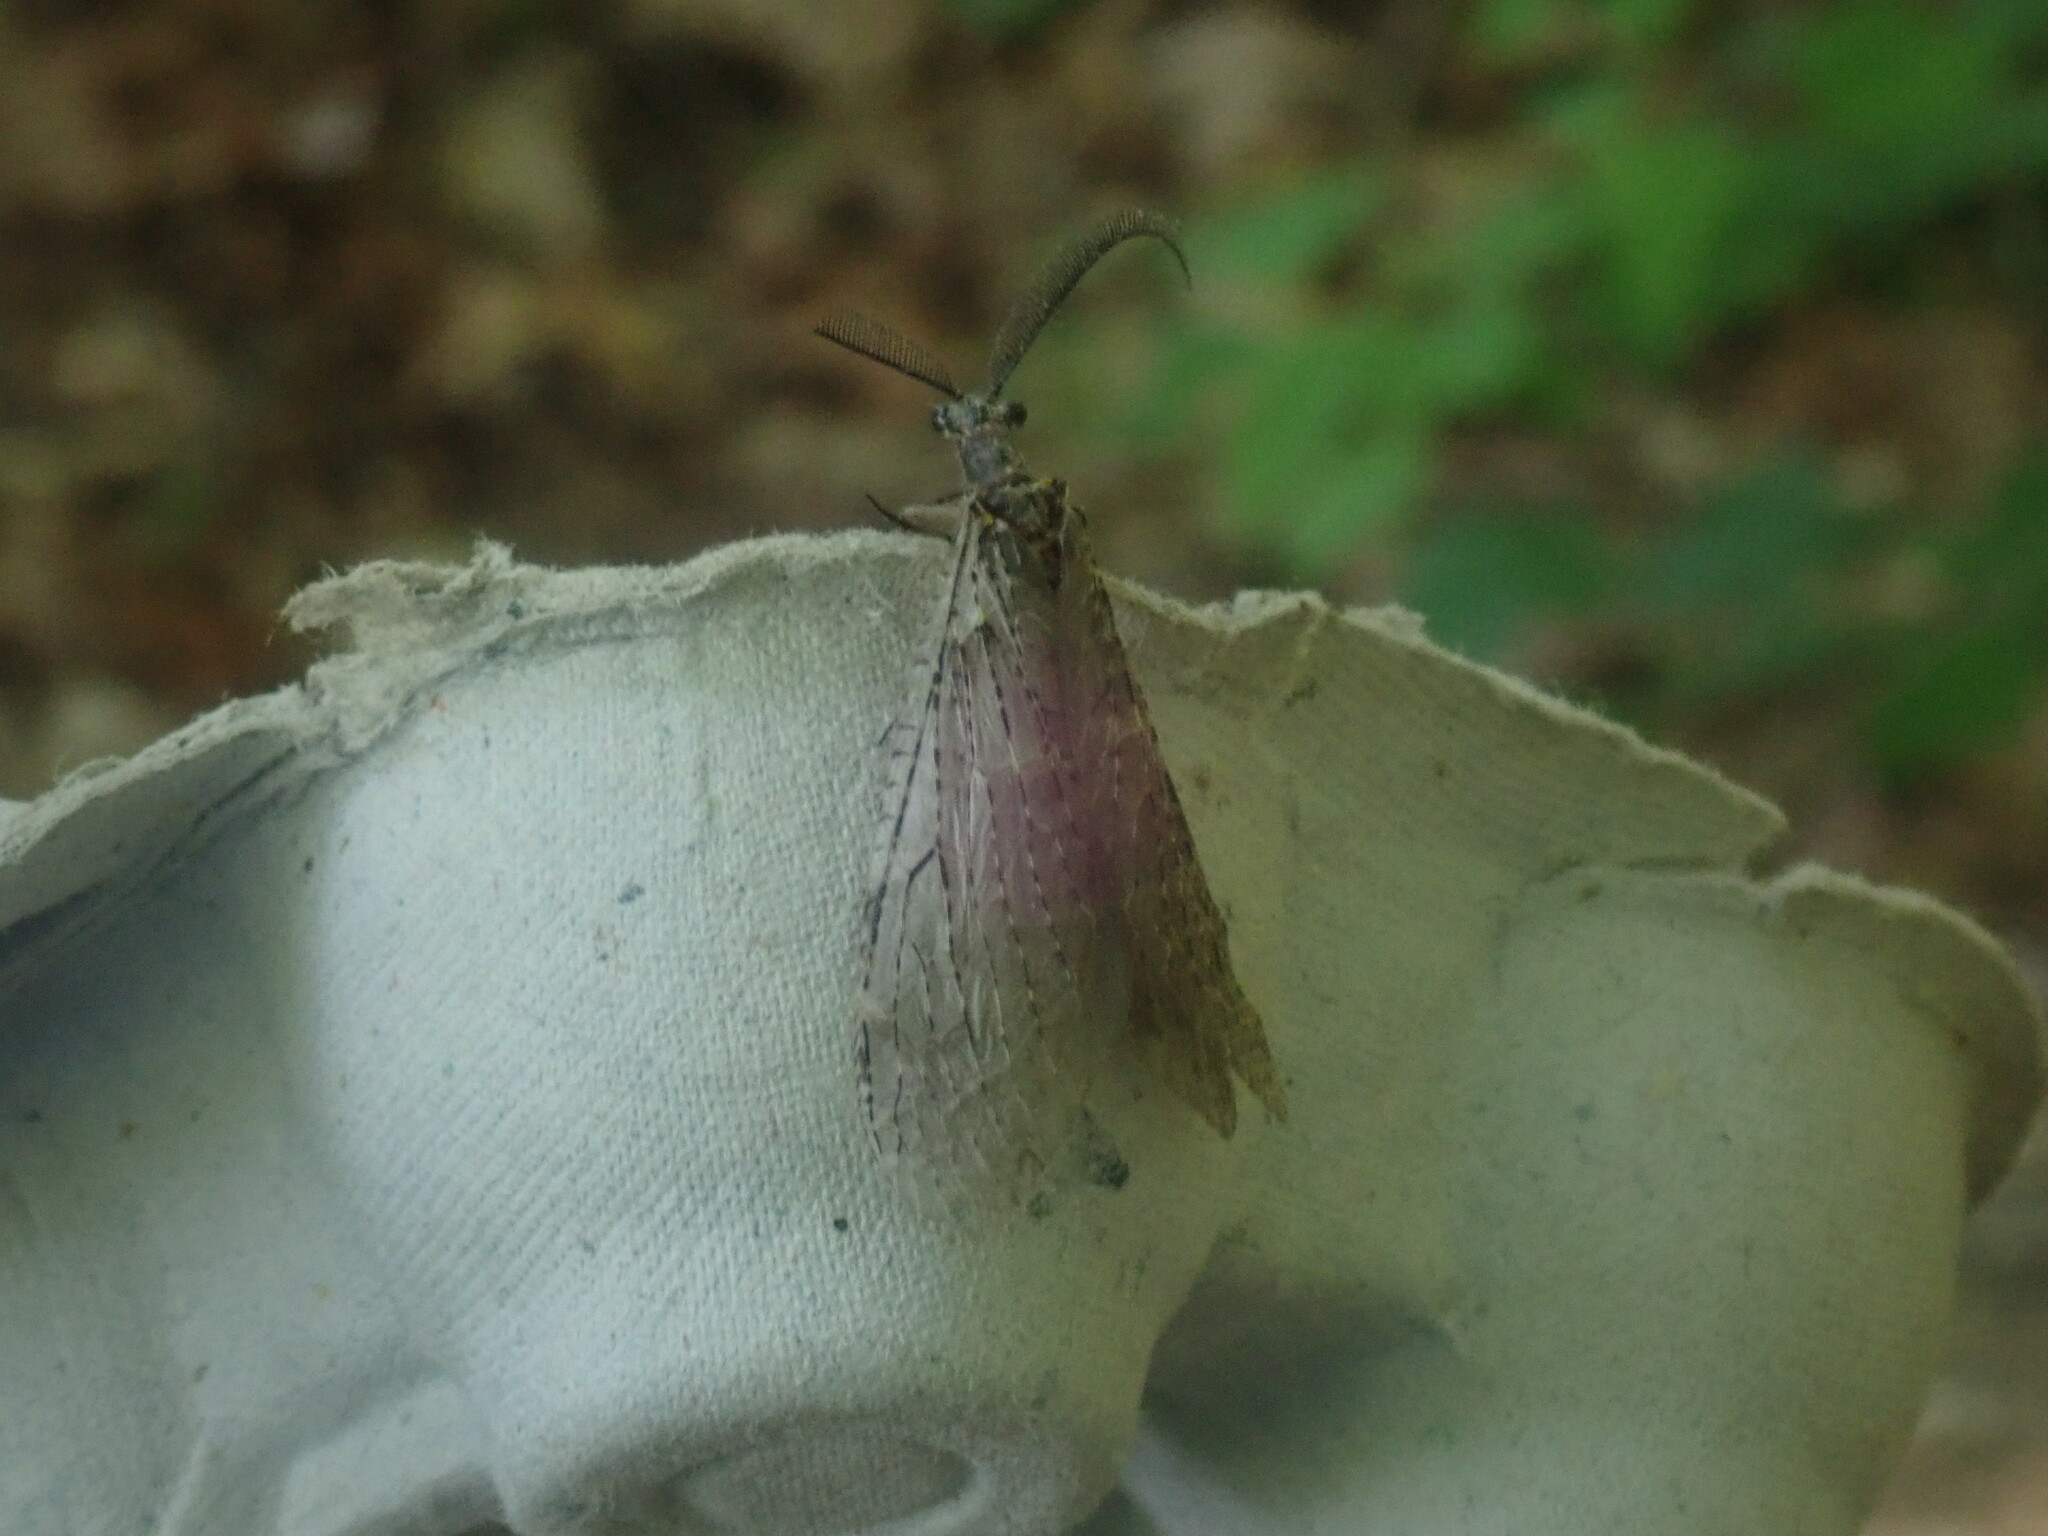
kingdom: Animalia
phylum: Arthropoda
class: Insecta
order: Megaloptera
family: Corydalidae
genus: Chauliodes
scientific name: Chauliodes rastricornis
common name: Spring fishfly
